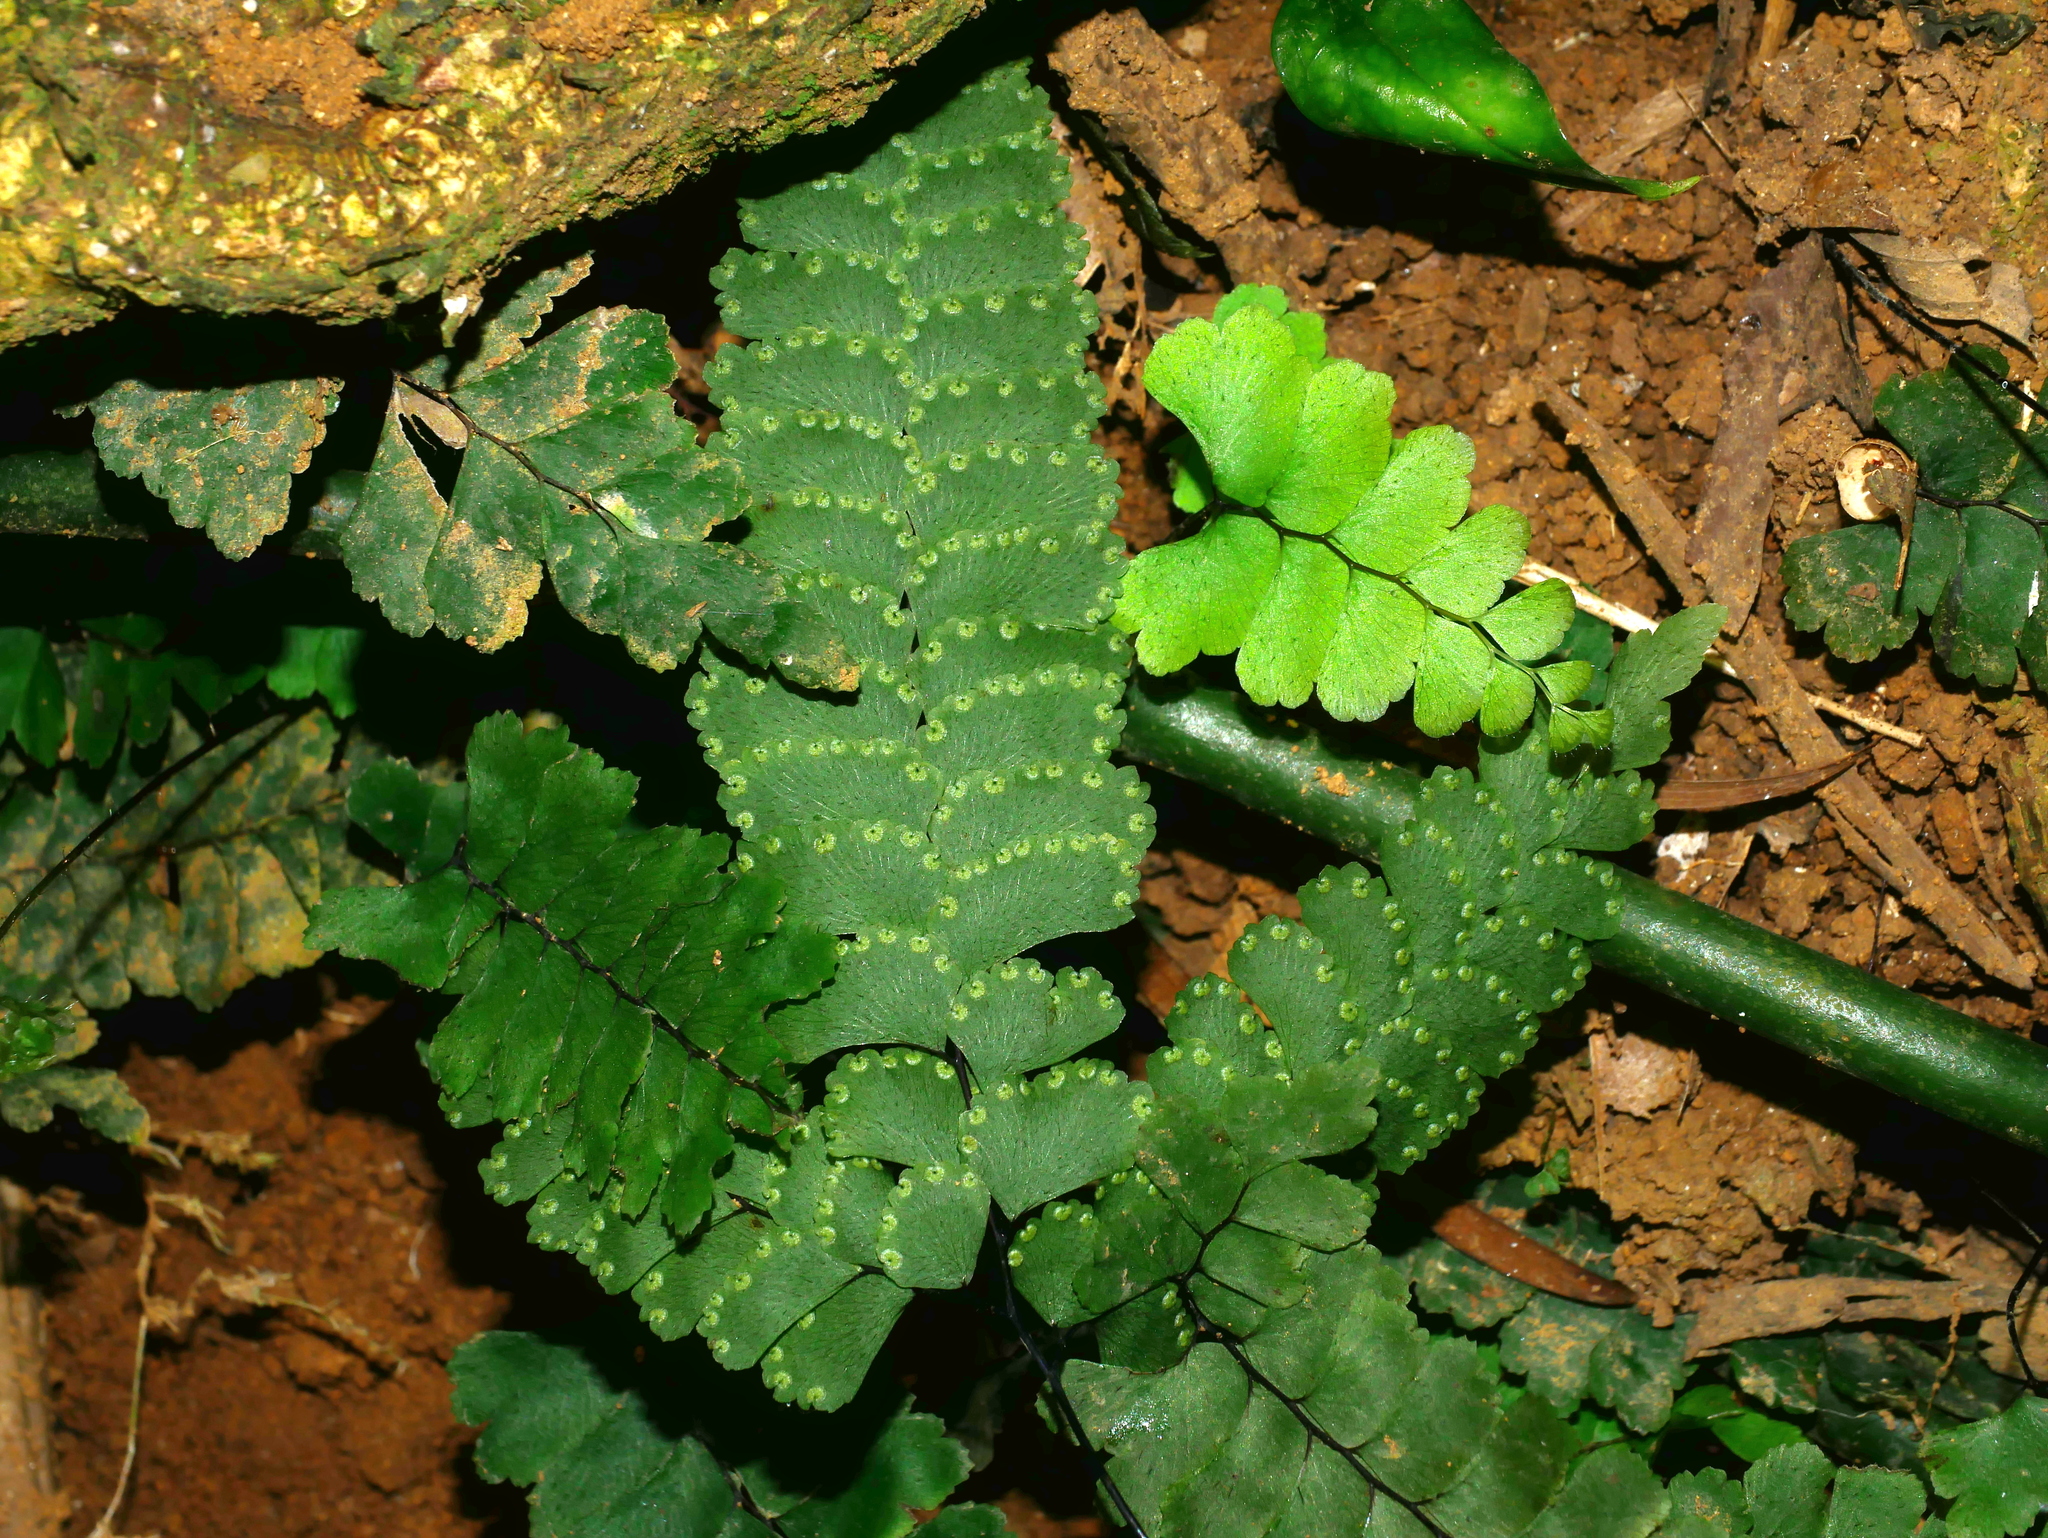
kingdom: Plantae
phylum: Tracheophyta
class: Polypodiopsida
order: Polypodiales
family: Pteridaceae
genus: Adiantum
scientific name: Adiantum diaphanum
